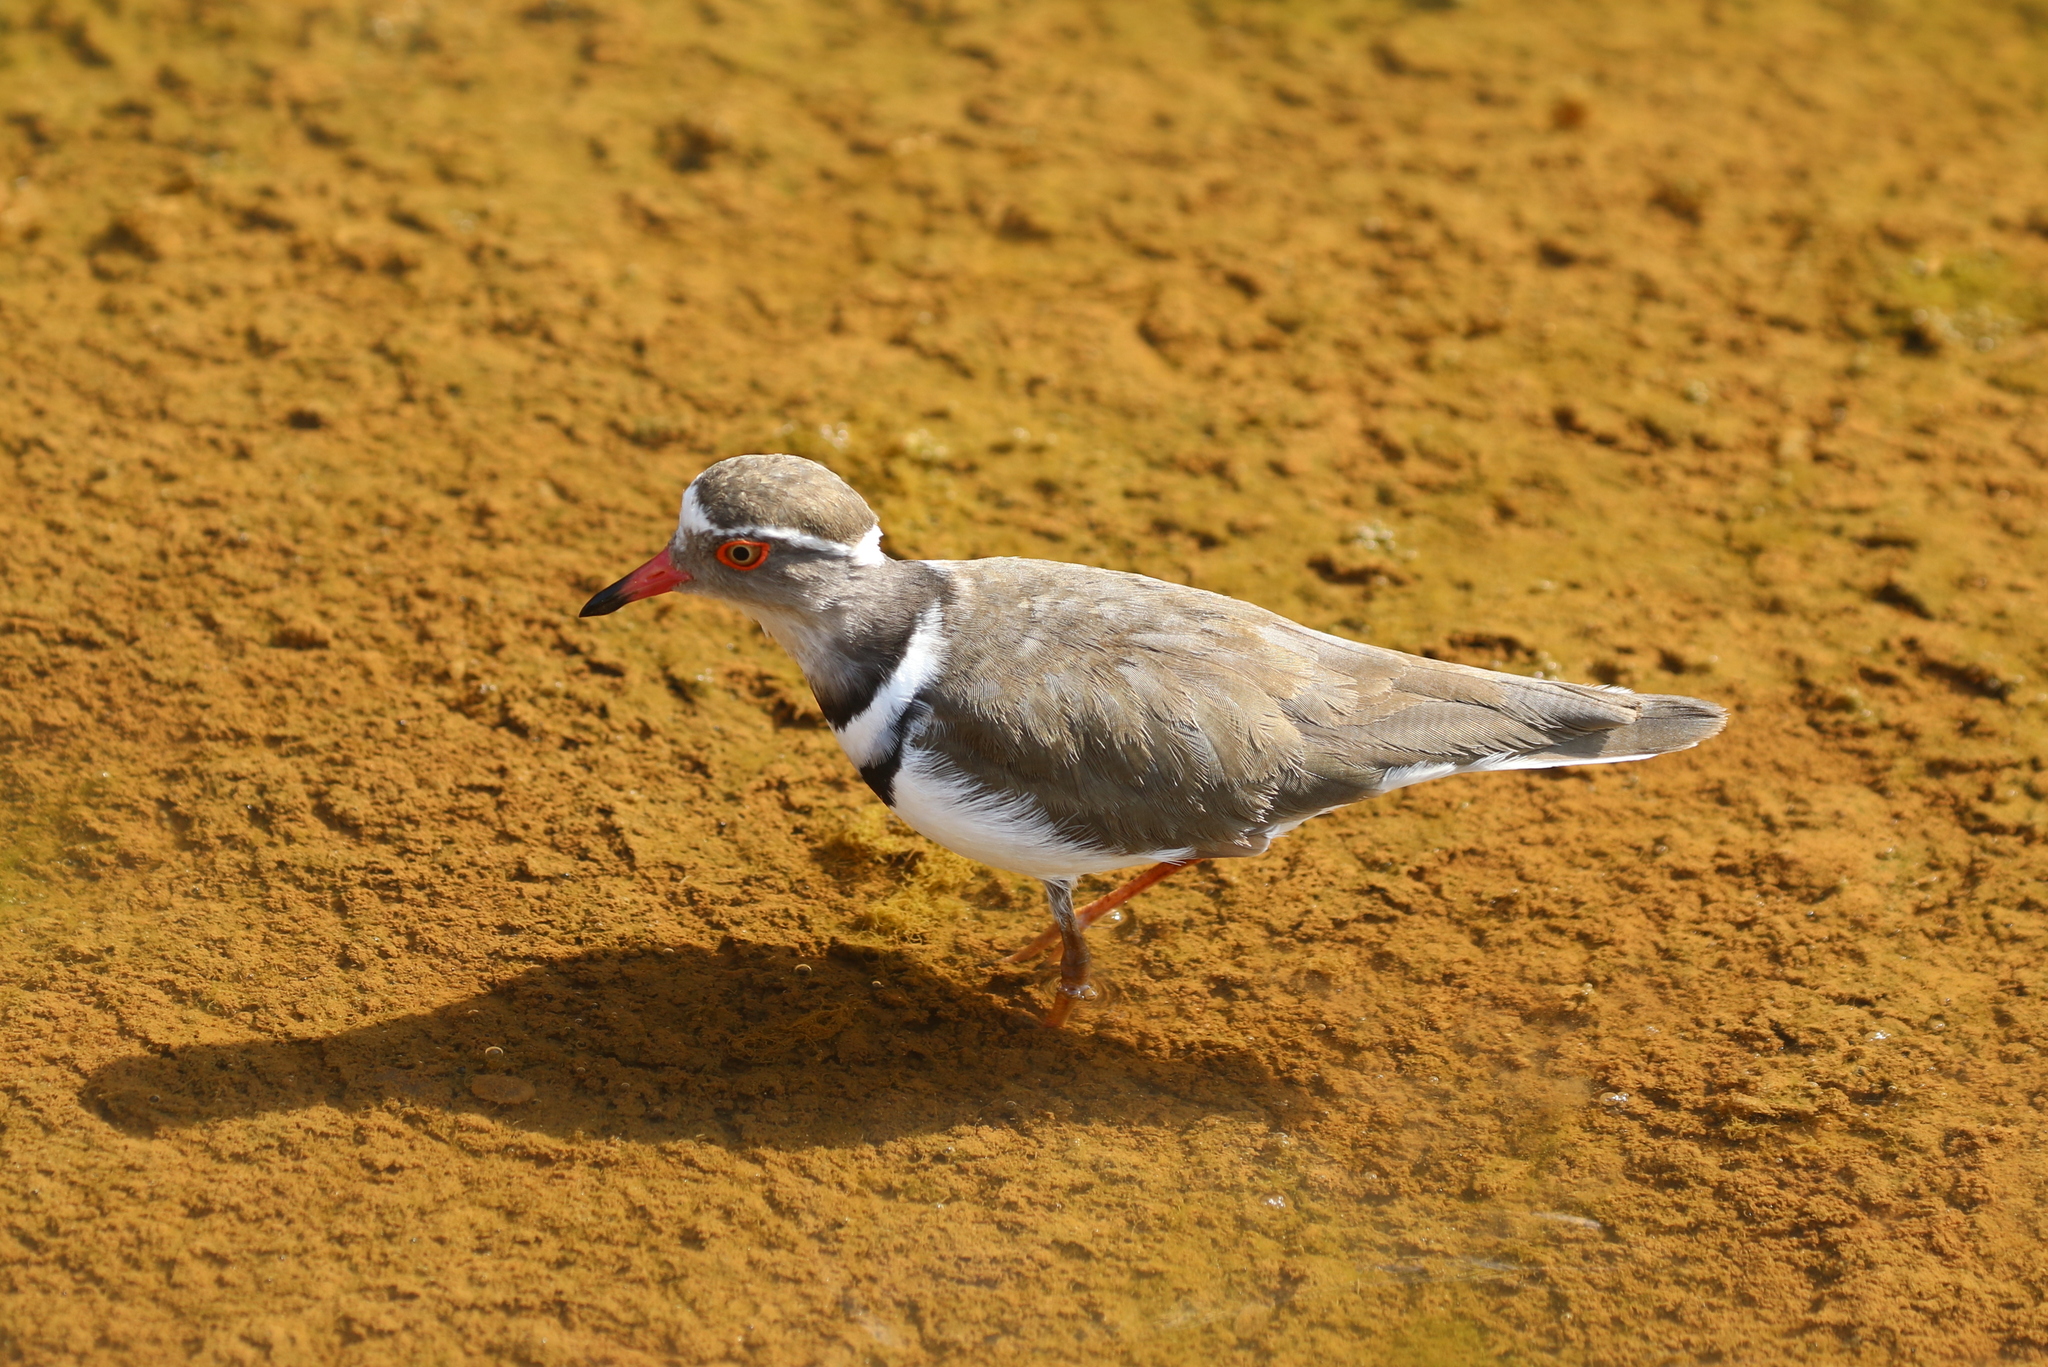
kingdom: Animalia
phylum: Chordata
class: Aves
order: Charadriiformes
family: Charadriidae
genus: Charadrius
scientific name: Charadrius tricollaris
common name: Three-banded plover
